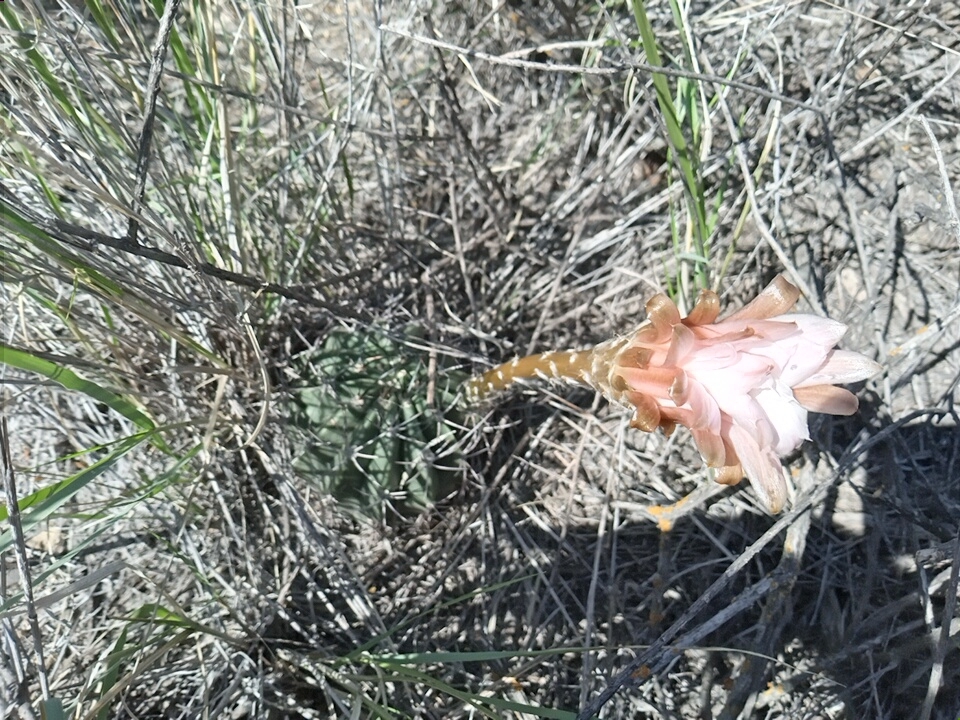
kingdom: Plantae
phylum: Tracheophyta
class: Magnoliopsida
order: Caryophyllales
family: Cactaceae
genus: Acanthocalycium
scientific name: Acanthocalycium leucanthum
